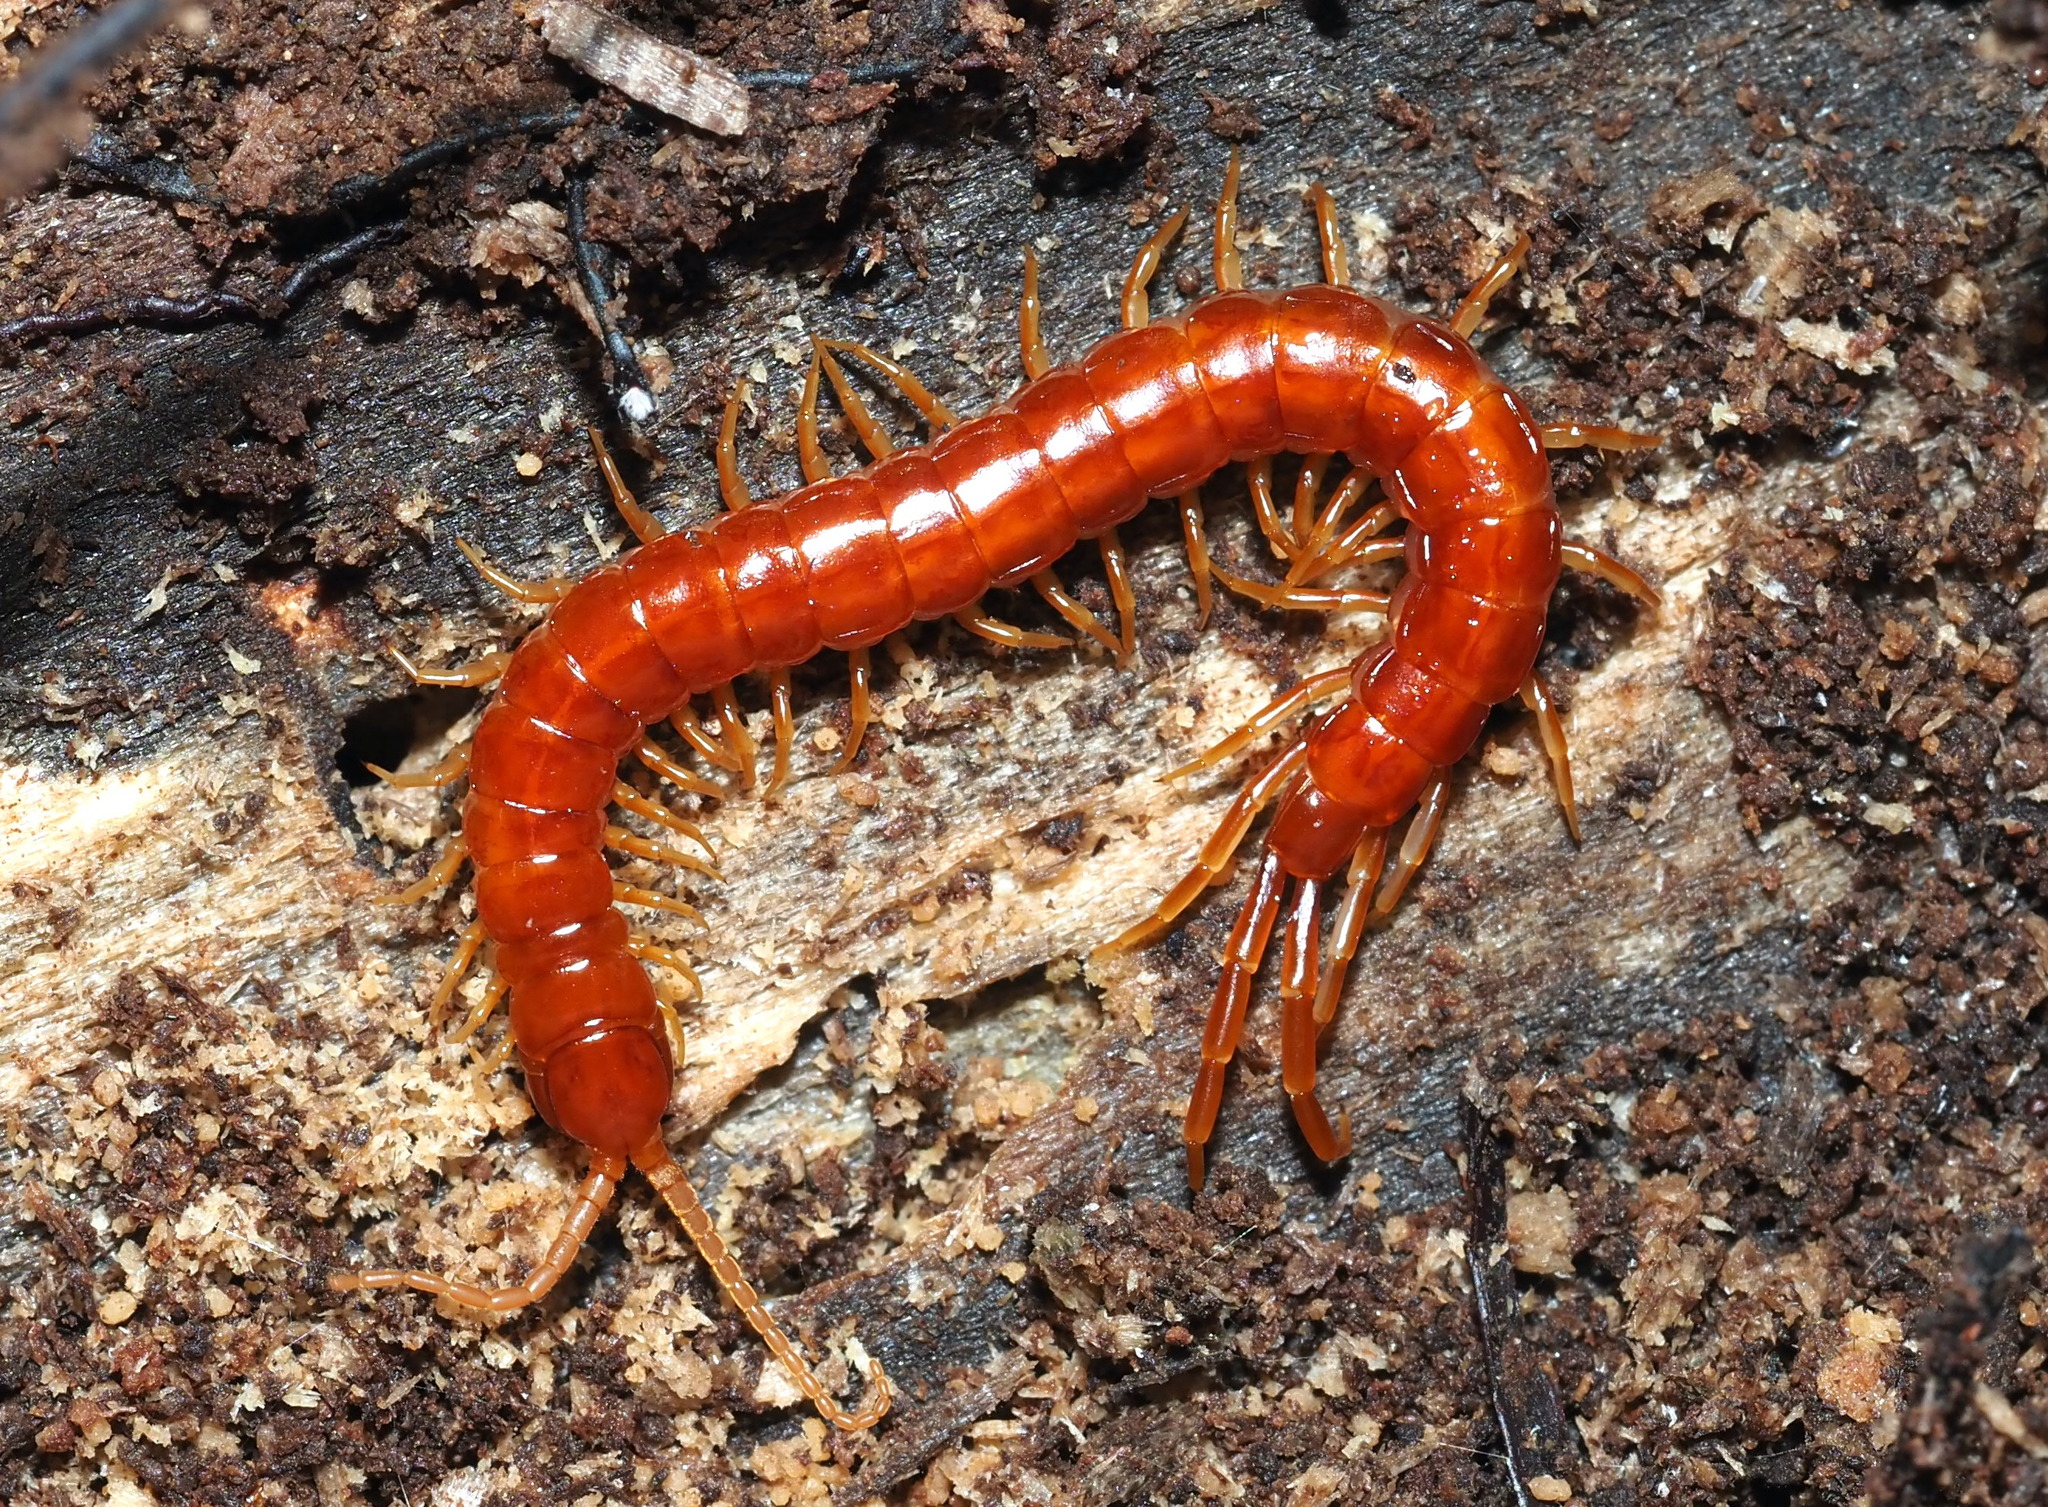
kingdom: Animalia
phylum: Arthropoda
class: Chilopoda
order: Scolopendromorpha
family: Scolopocryptopidae
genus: Scolopocryptops
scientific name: Scolopocryptops sexspinosus
